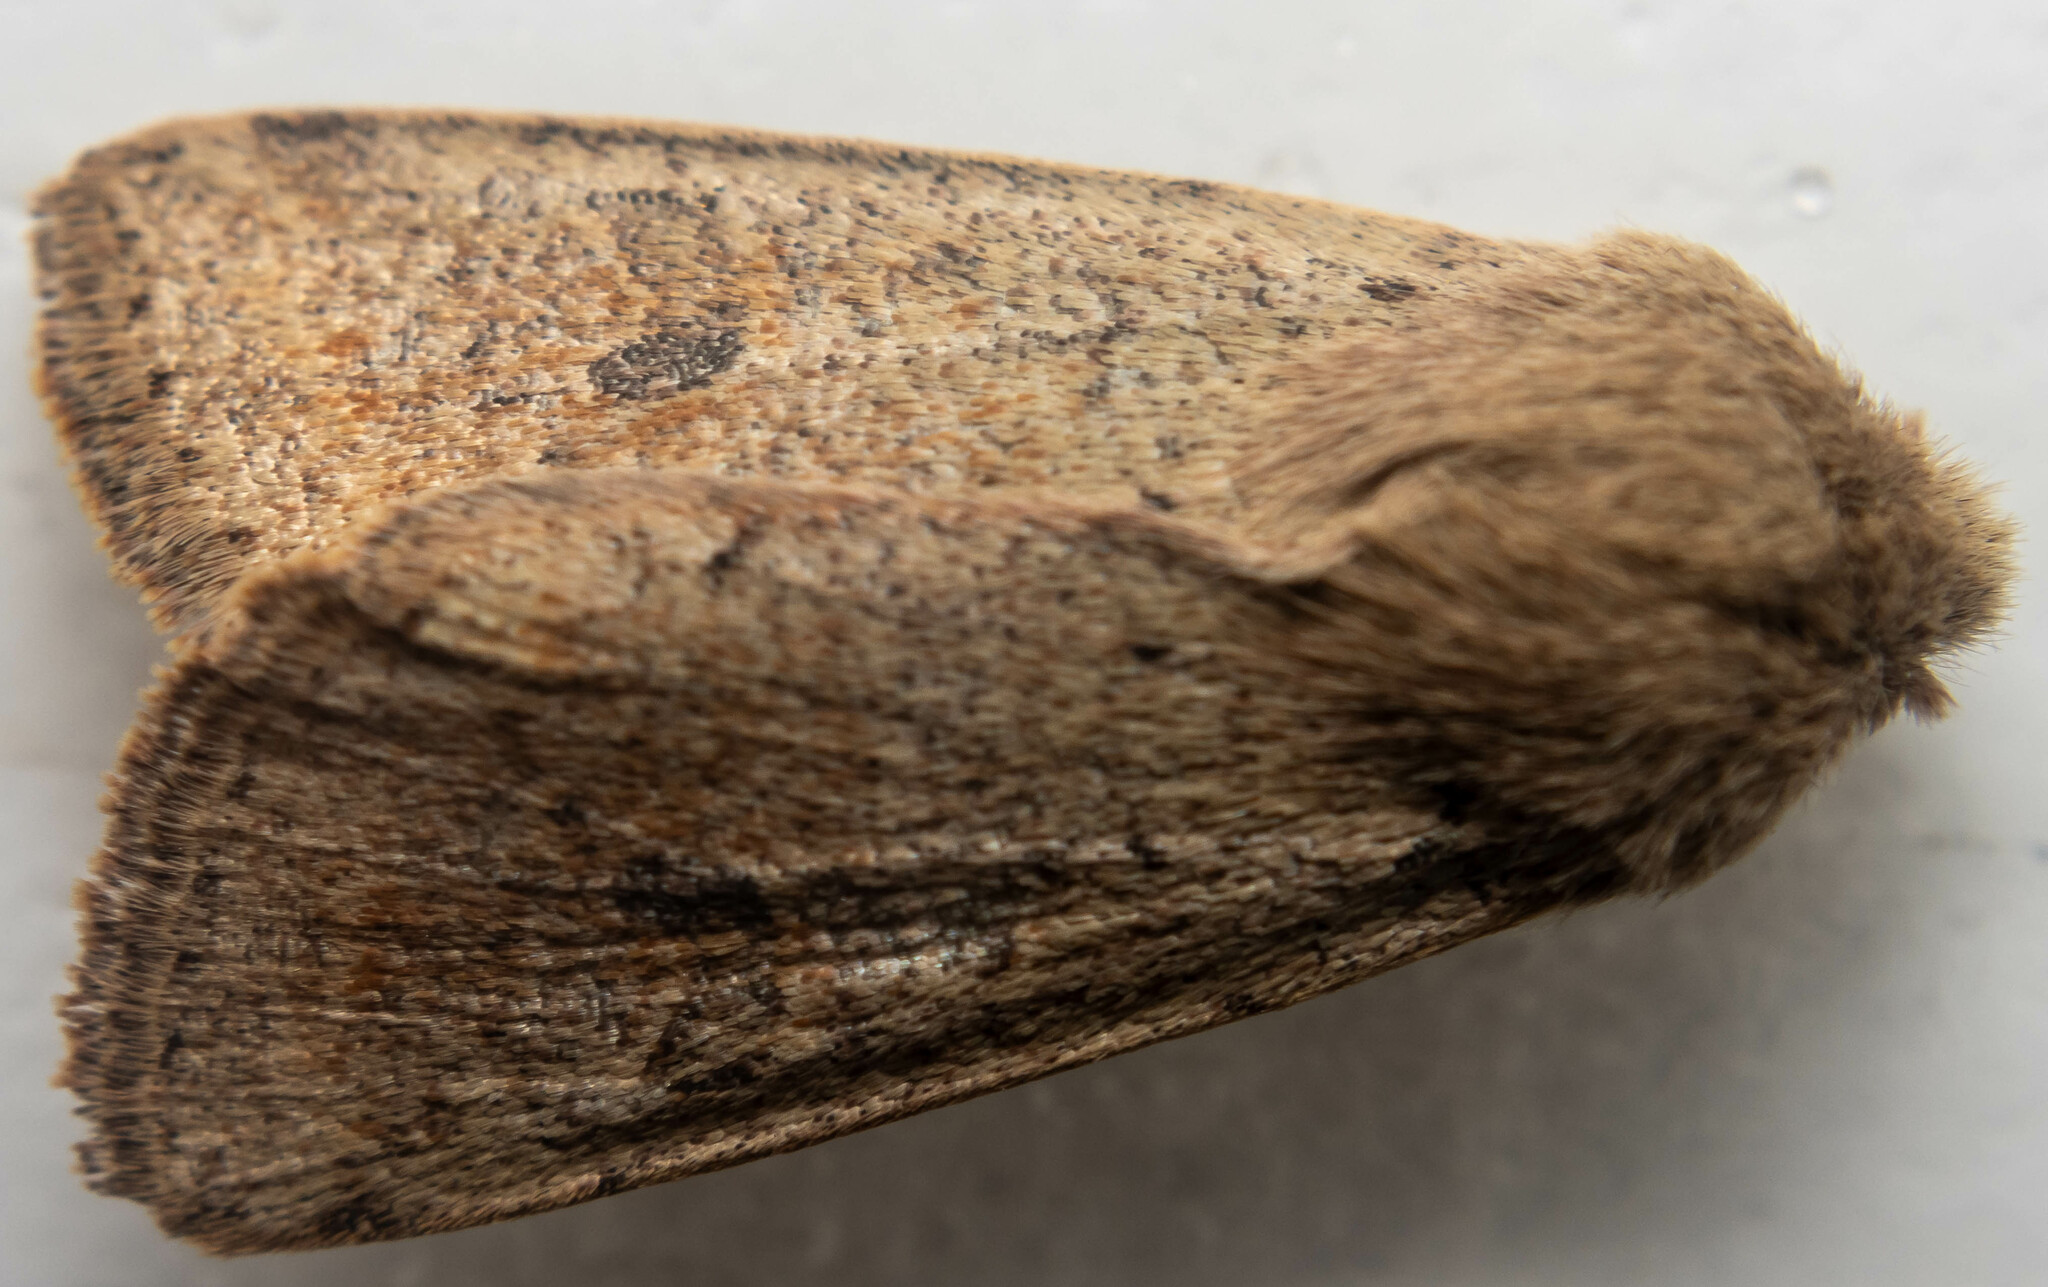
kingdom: Animalia
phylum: Arthropoda
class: Insecta
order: Lepidoptera
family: Noctuidae
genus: Orthosia
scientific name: Orthosia cruda
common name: Small quaker
